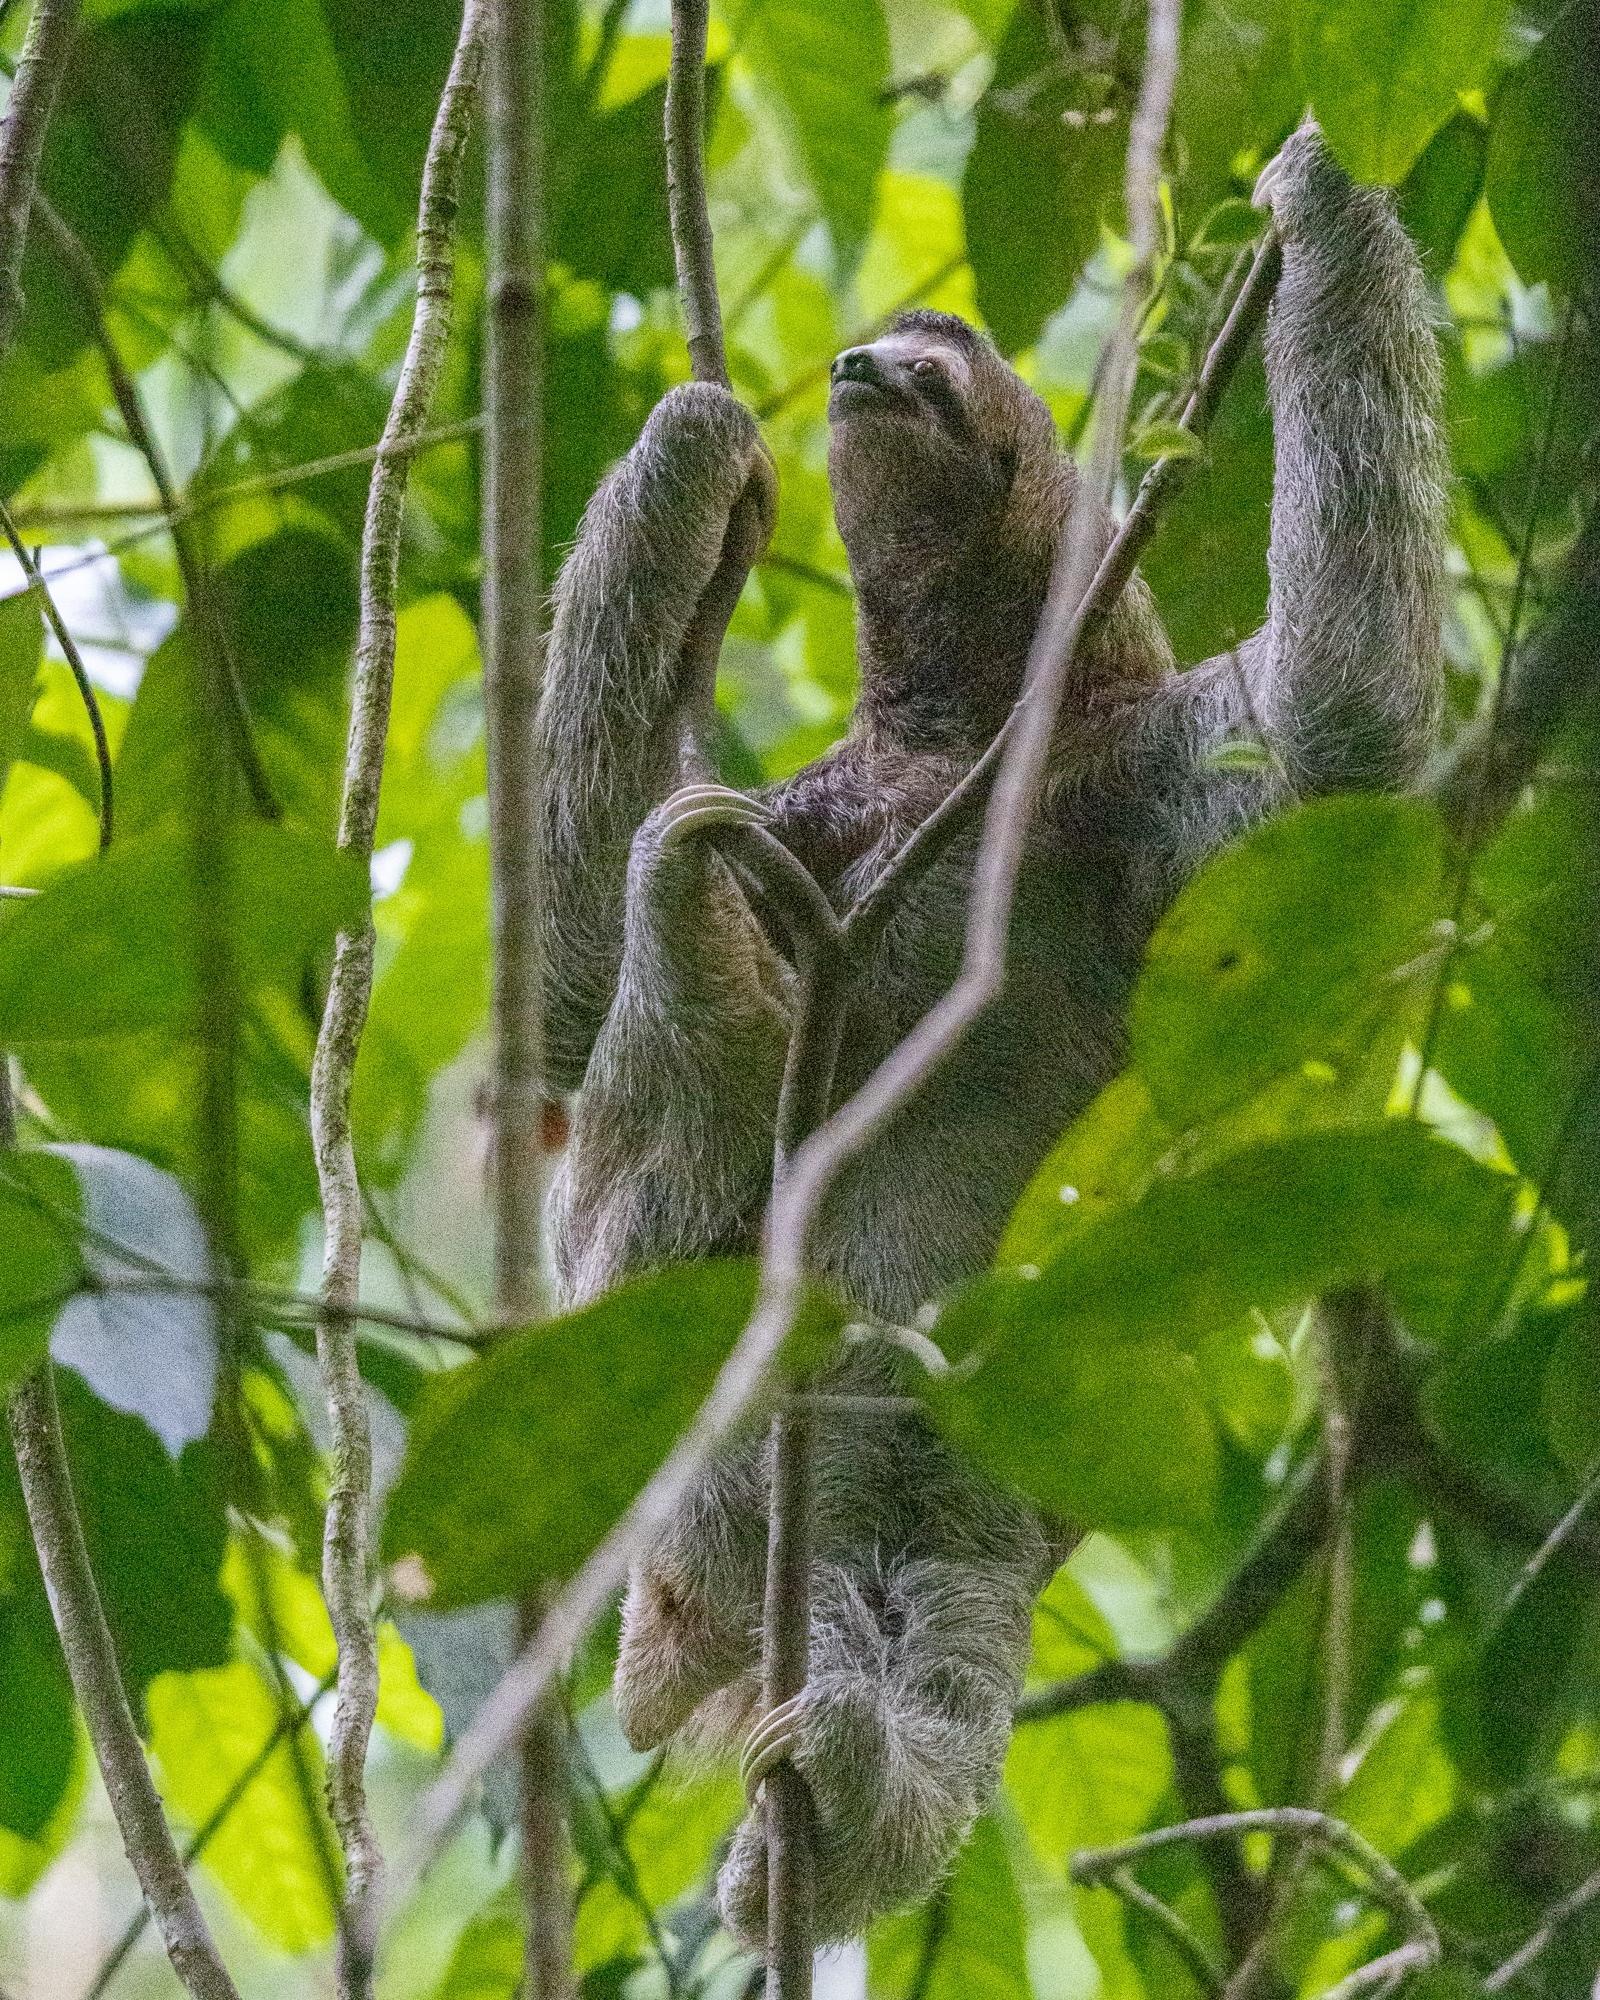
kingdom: Animalia
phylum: Chordata
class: Mammalia
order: Pilosa
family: Bradypodidae
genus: Bradypus
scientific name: Bradypus variegatus
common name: Brown-throated three-toed sloth
